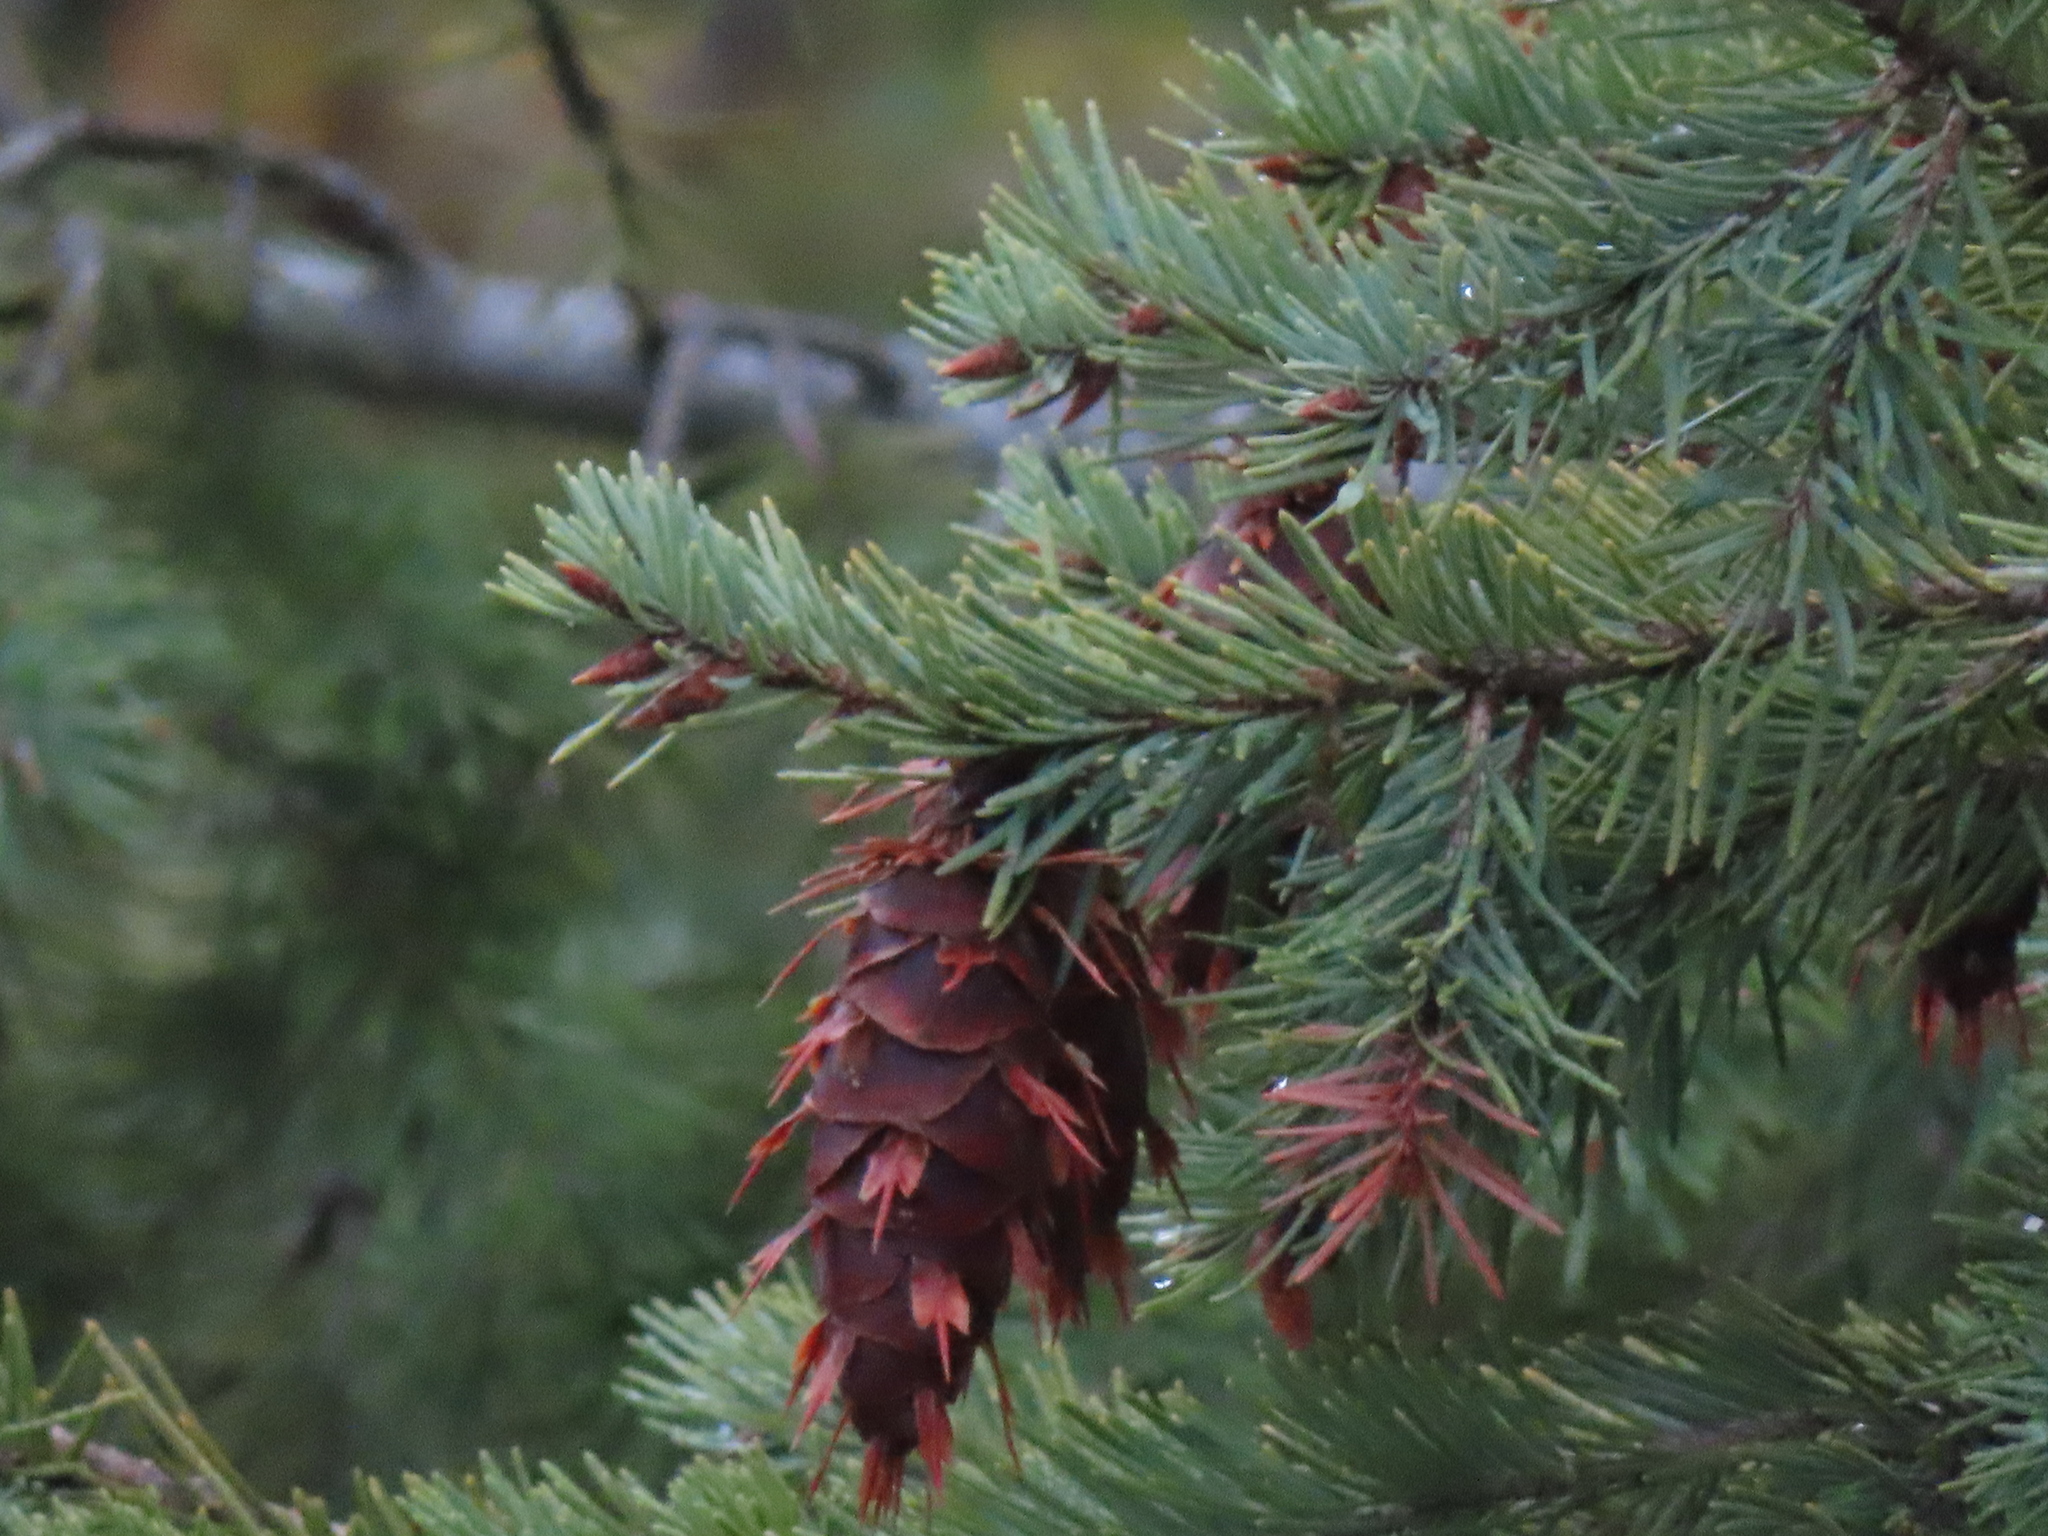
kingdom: Plantae
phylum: Tracheophyta
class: Pinopsida
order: Pinales
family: Pinaceae
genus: Pseudotsuga
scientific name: Pseudotsuga menziesii
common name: Douglas fir
